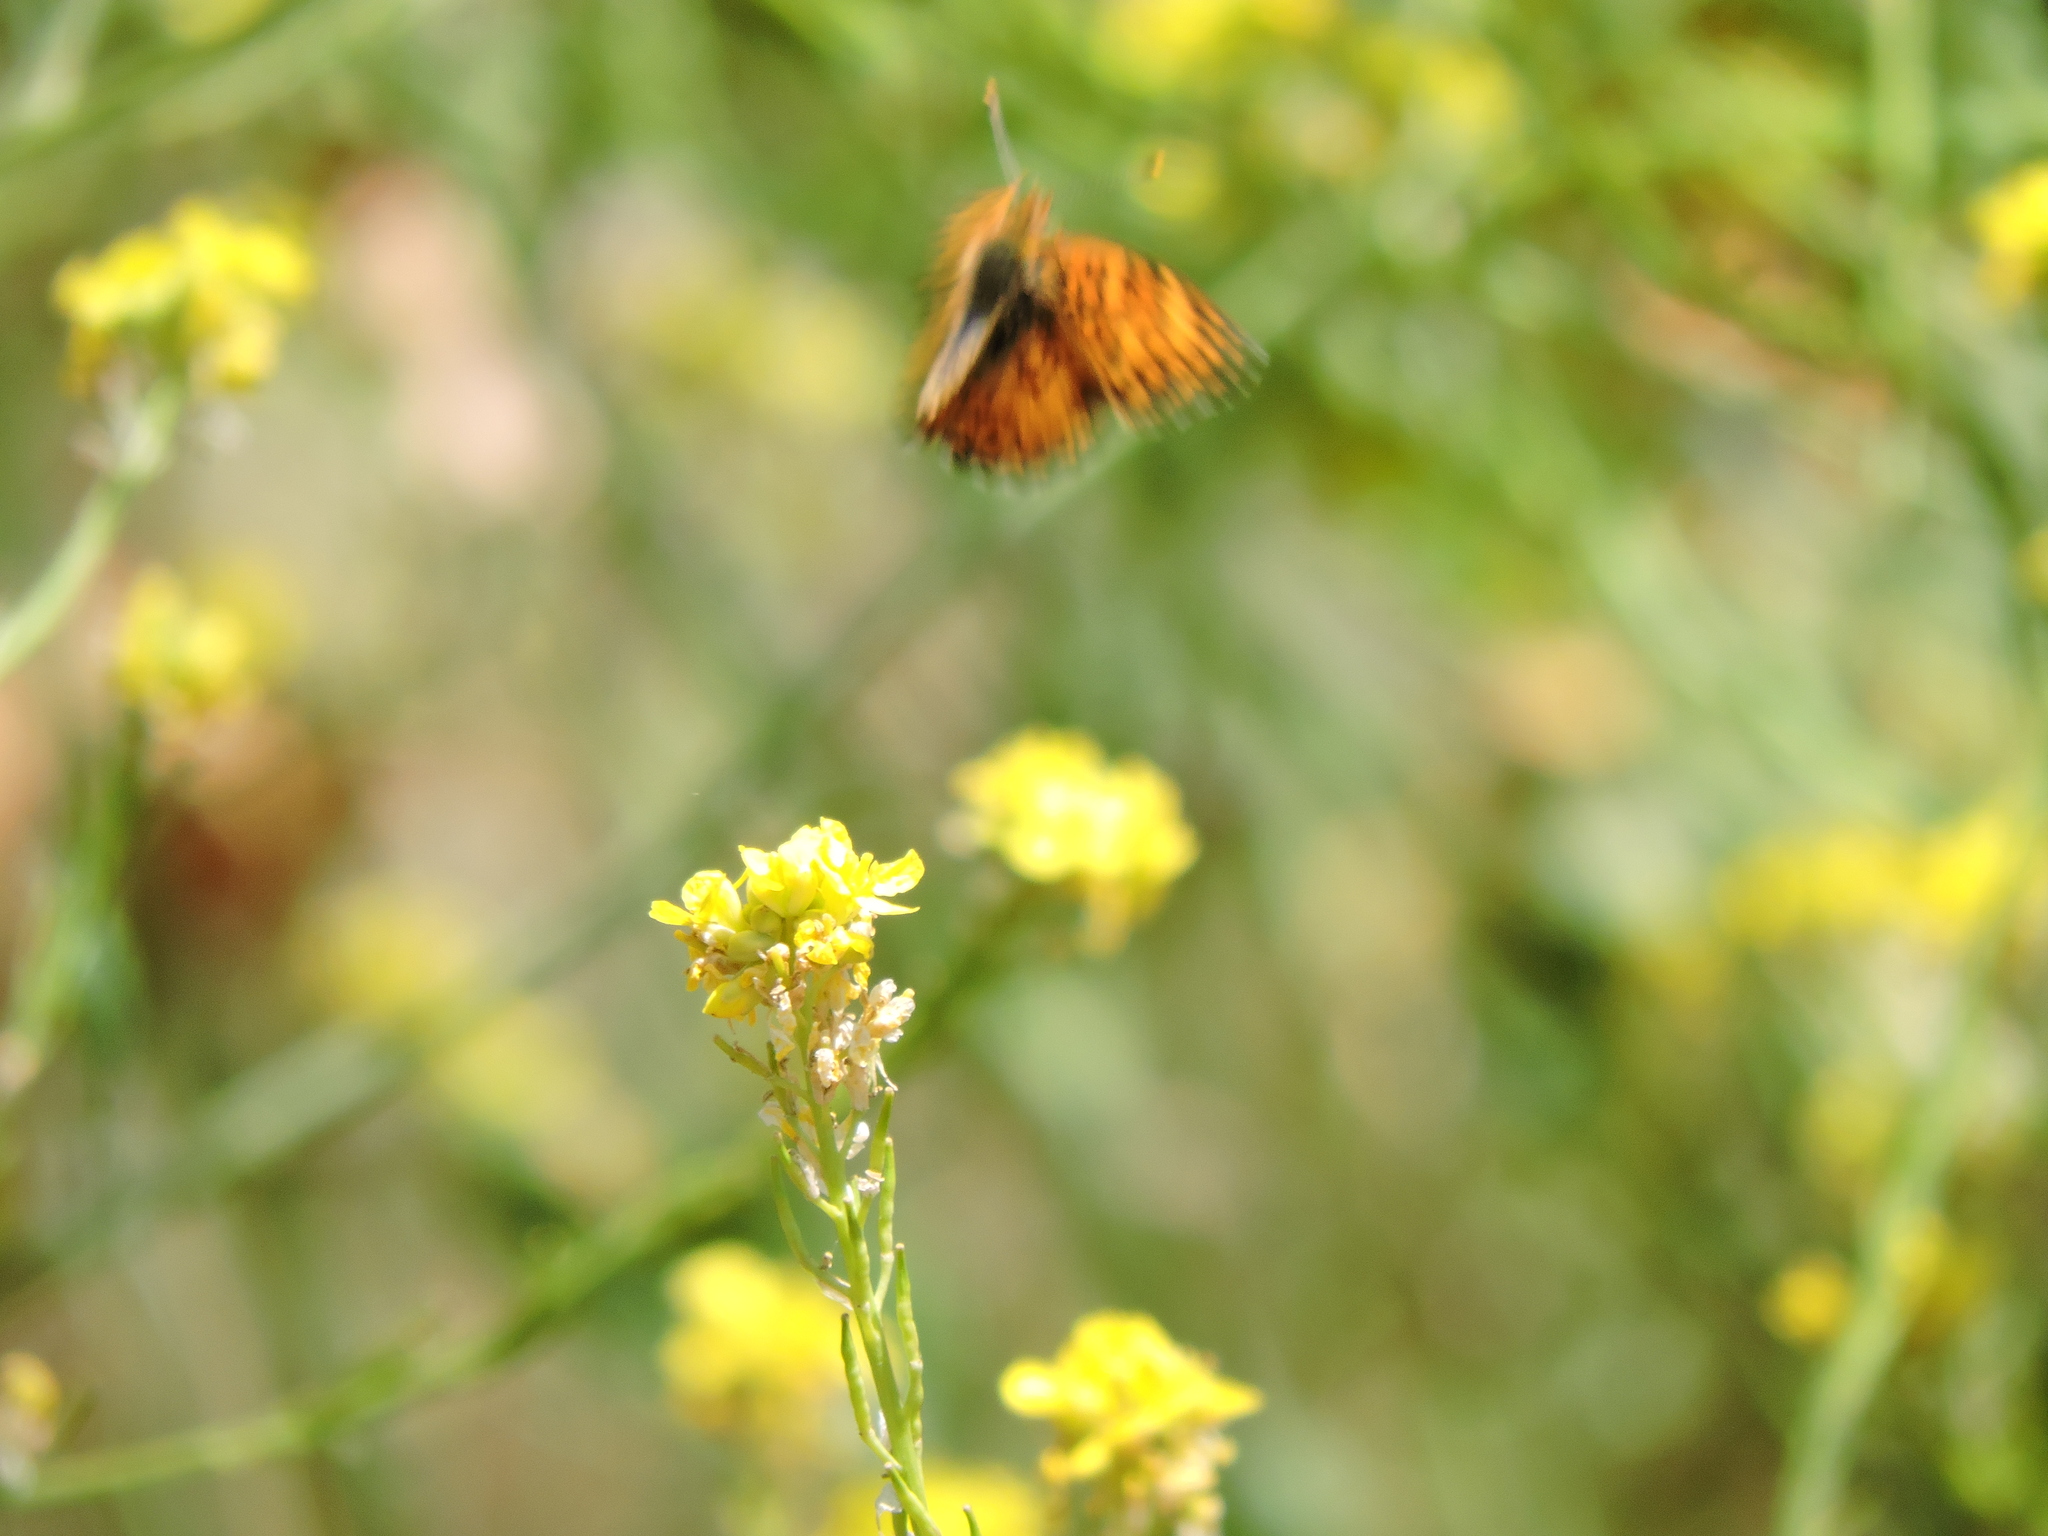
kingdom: Animalia
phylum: Arthropoda
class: Insecta
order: Lepidoptera
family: Nymphalidae
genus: Eresia
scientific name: Eresia aveyrona
